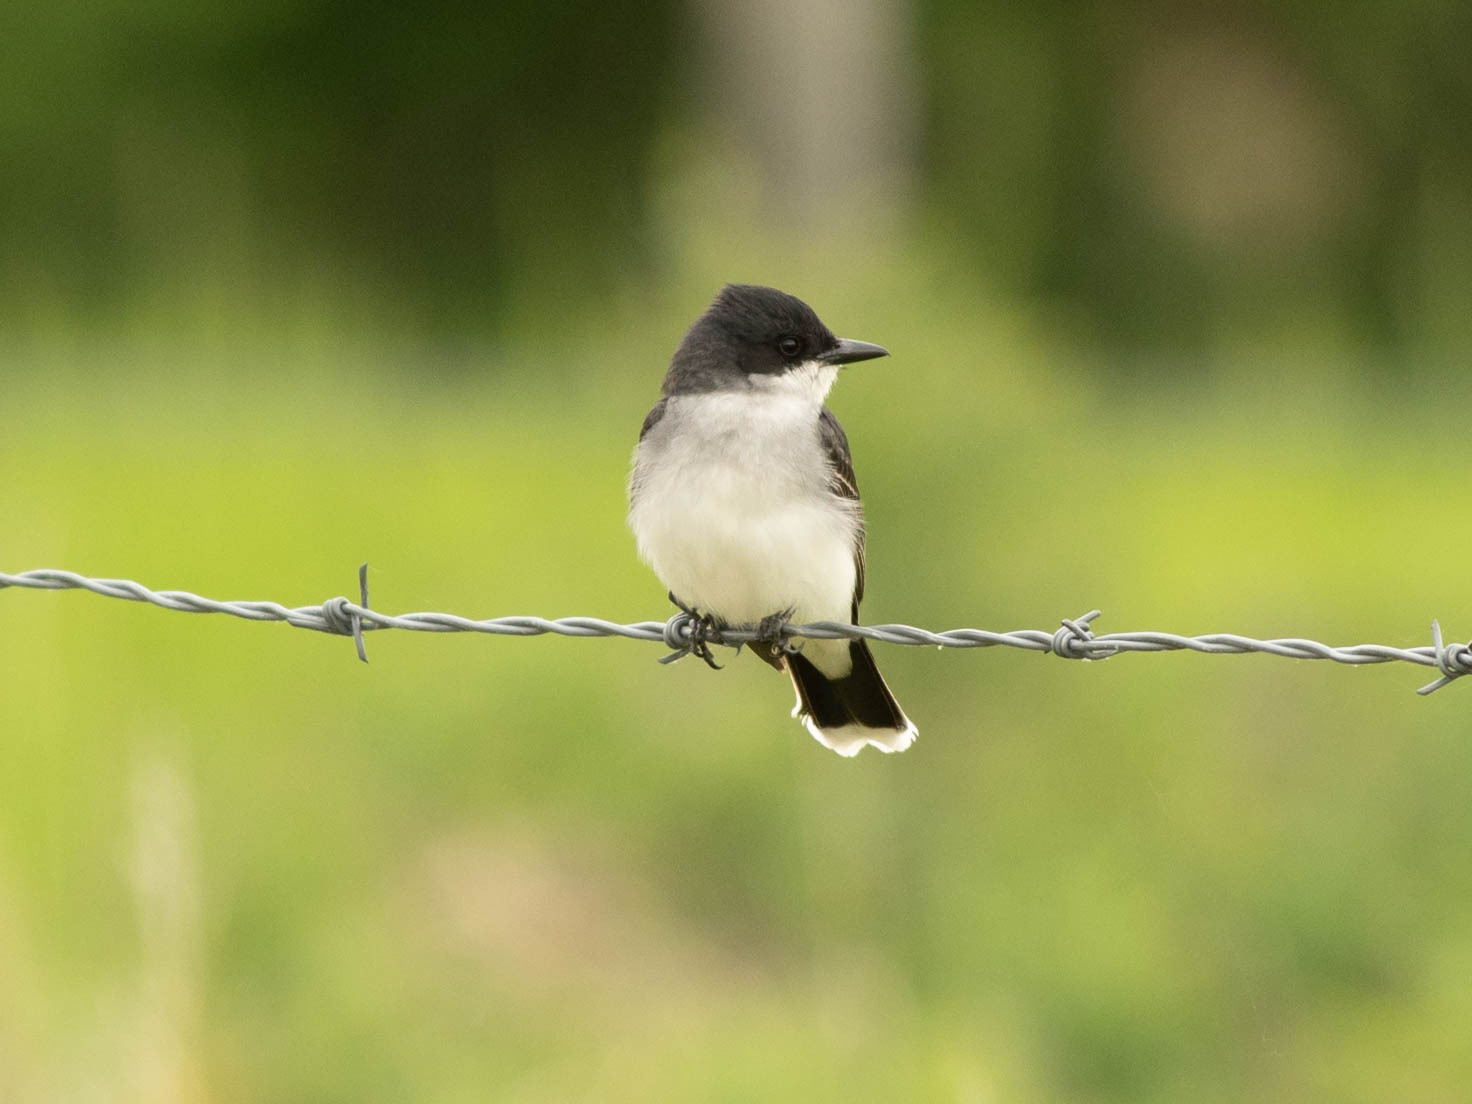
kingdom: Animalia
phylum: Chordata
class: Aves
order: Passeriformes
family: Tyrannidae
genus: Tyrannus
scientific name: Tyrannus tyrannus
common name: Eastern kingbird
